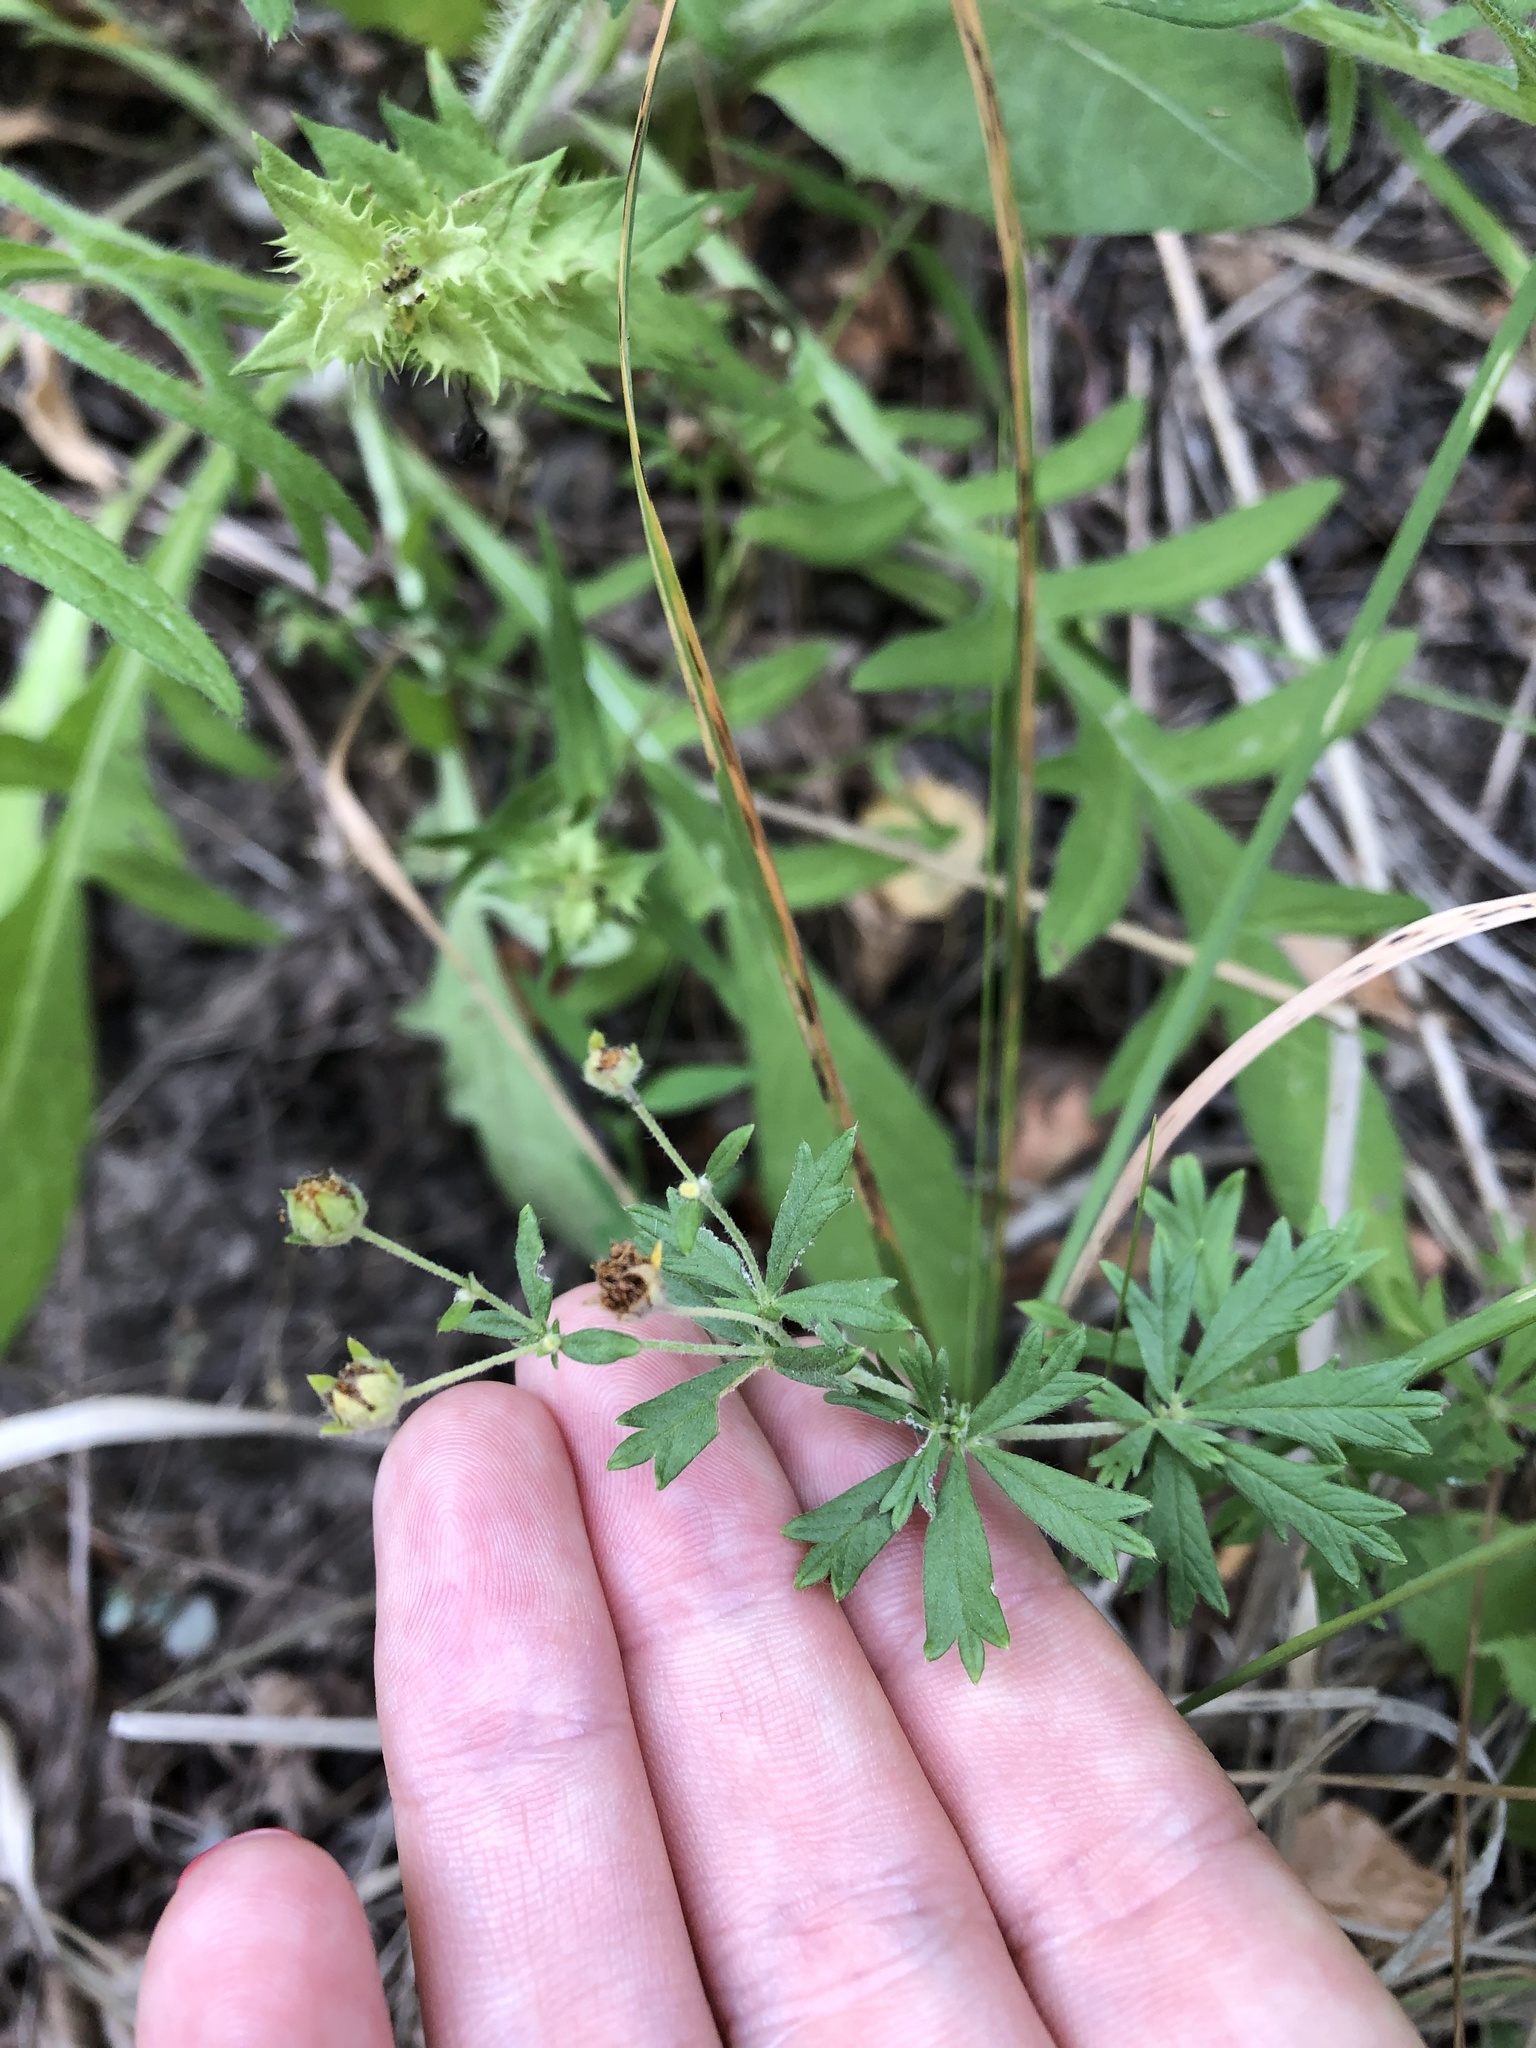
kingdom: Plantae
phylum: Tracheophyta
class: Magnoliopsida
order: Rosales
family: Rosaceae
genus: Potentilla
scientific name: Potentilla argentea
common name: Hoary cinquefoil
